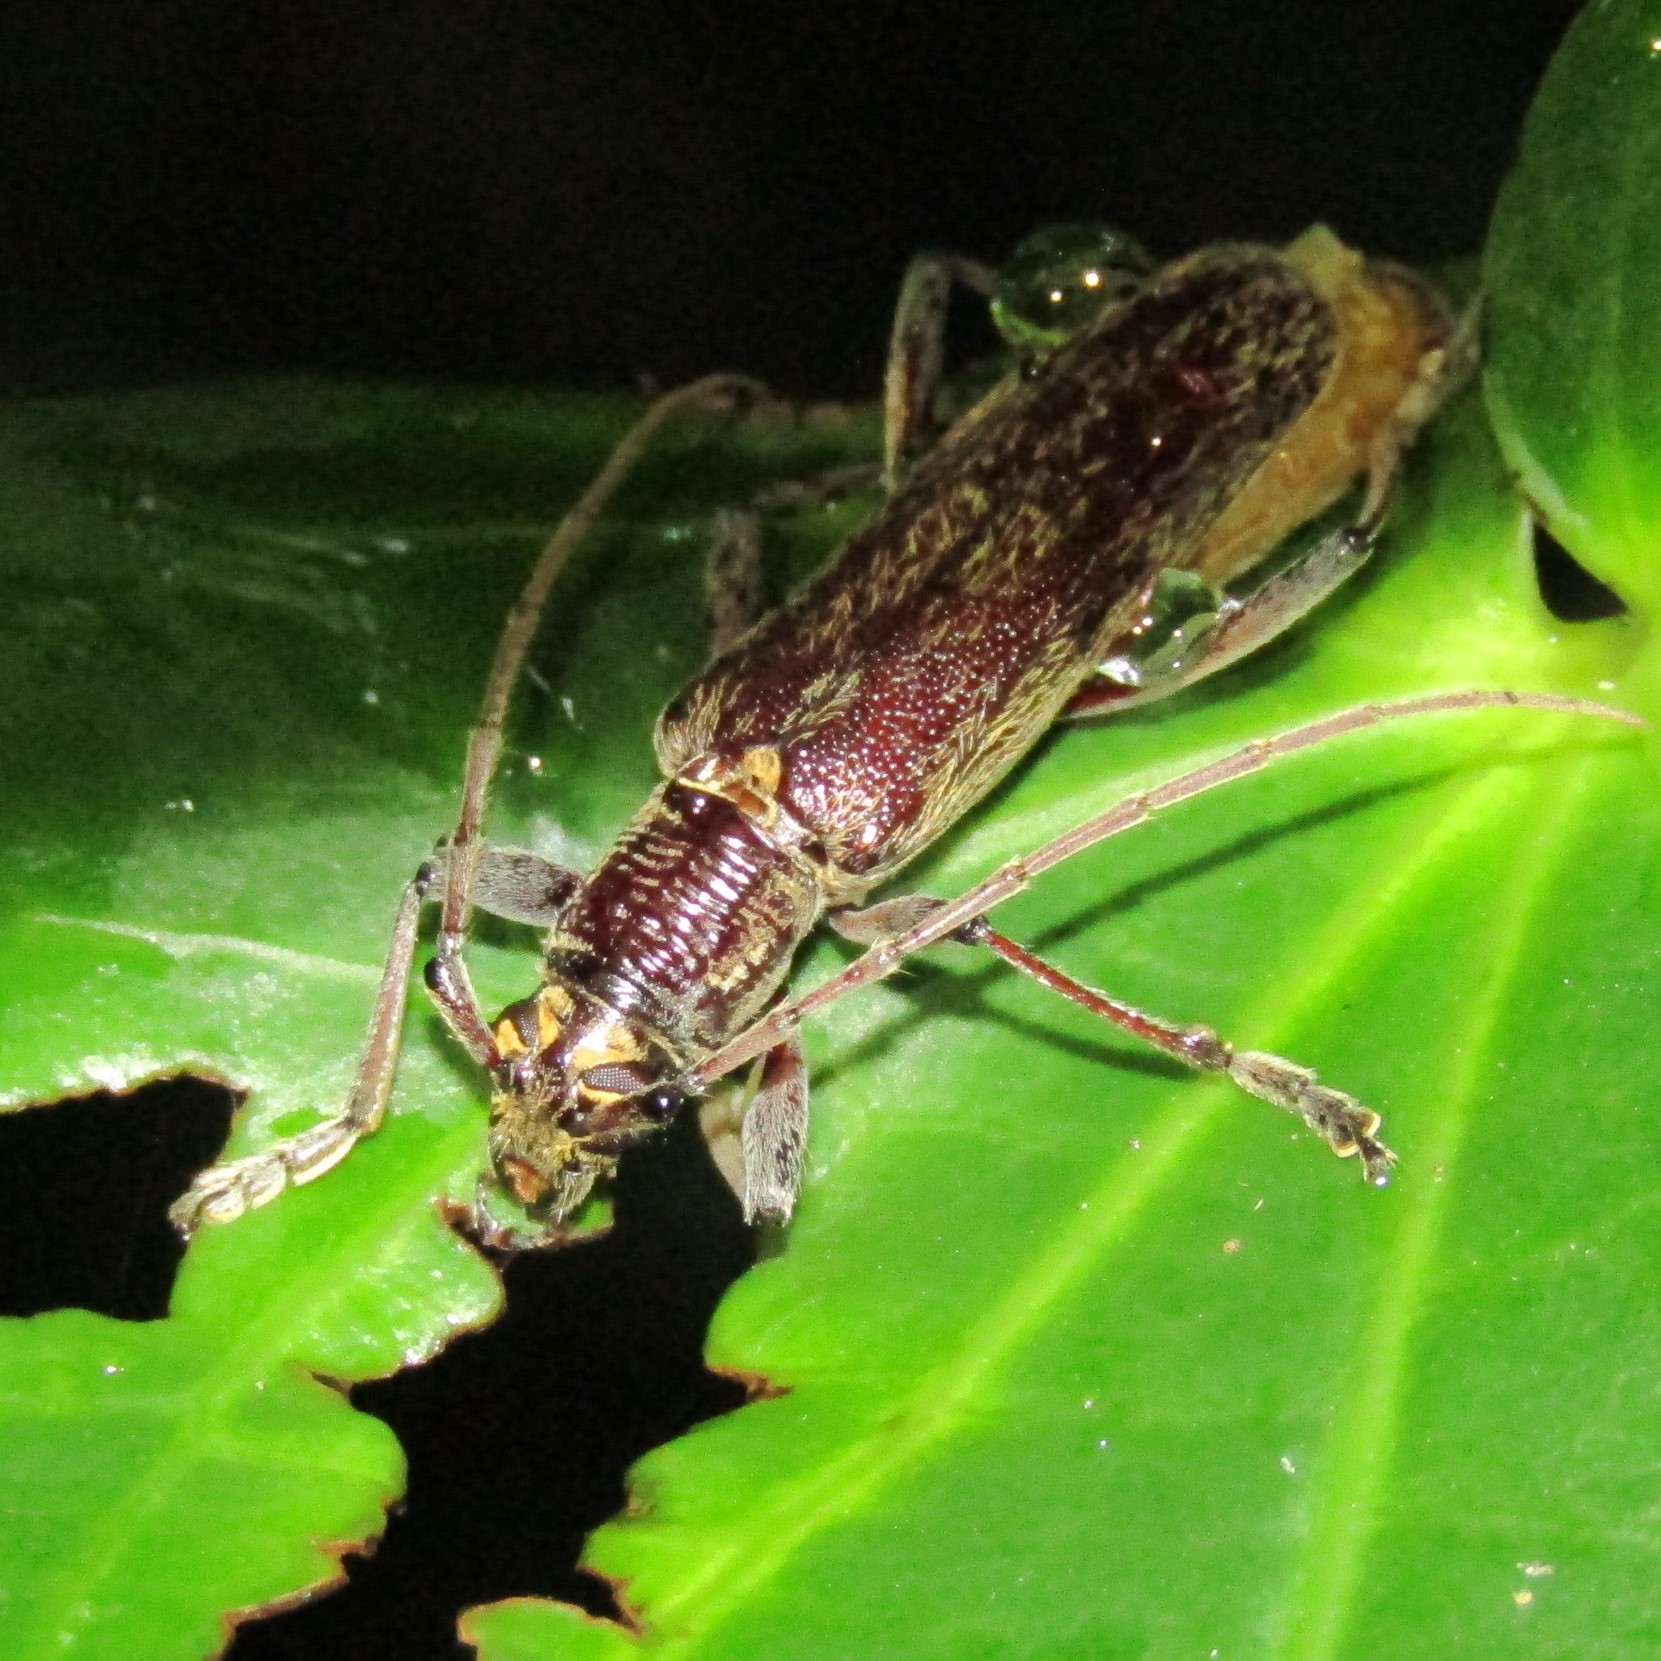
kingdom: Animalia
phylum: Arthropoda
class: Insecta
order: Coleoptera
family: Cerambycidae
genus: Oemona
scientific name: Oemona hirta
